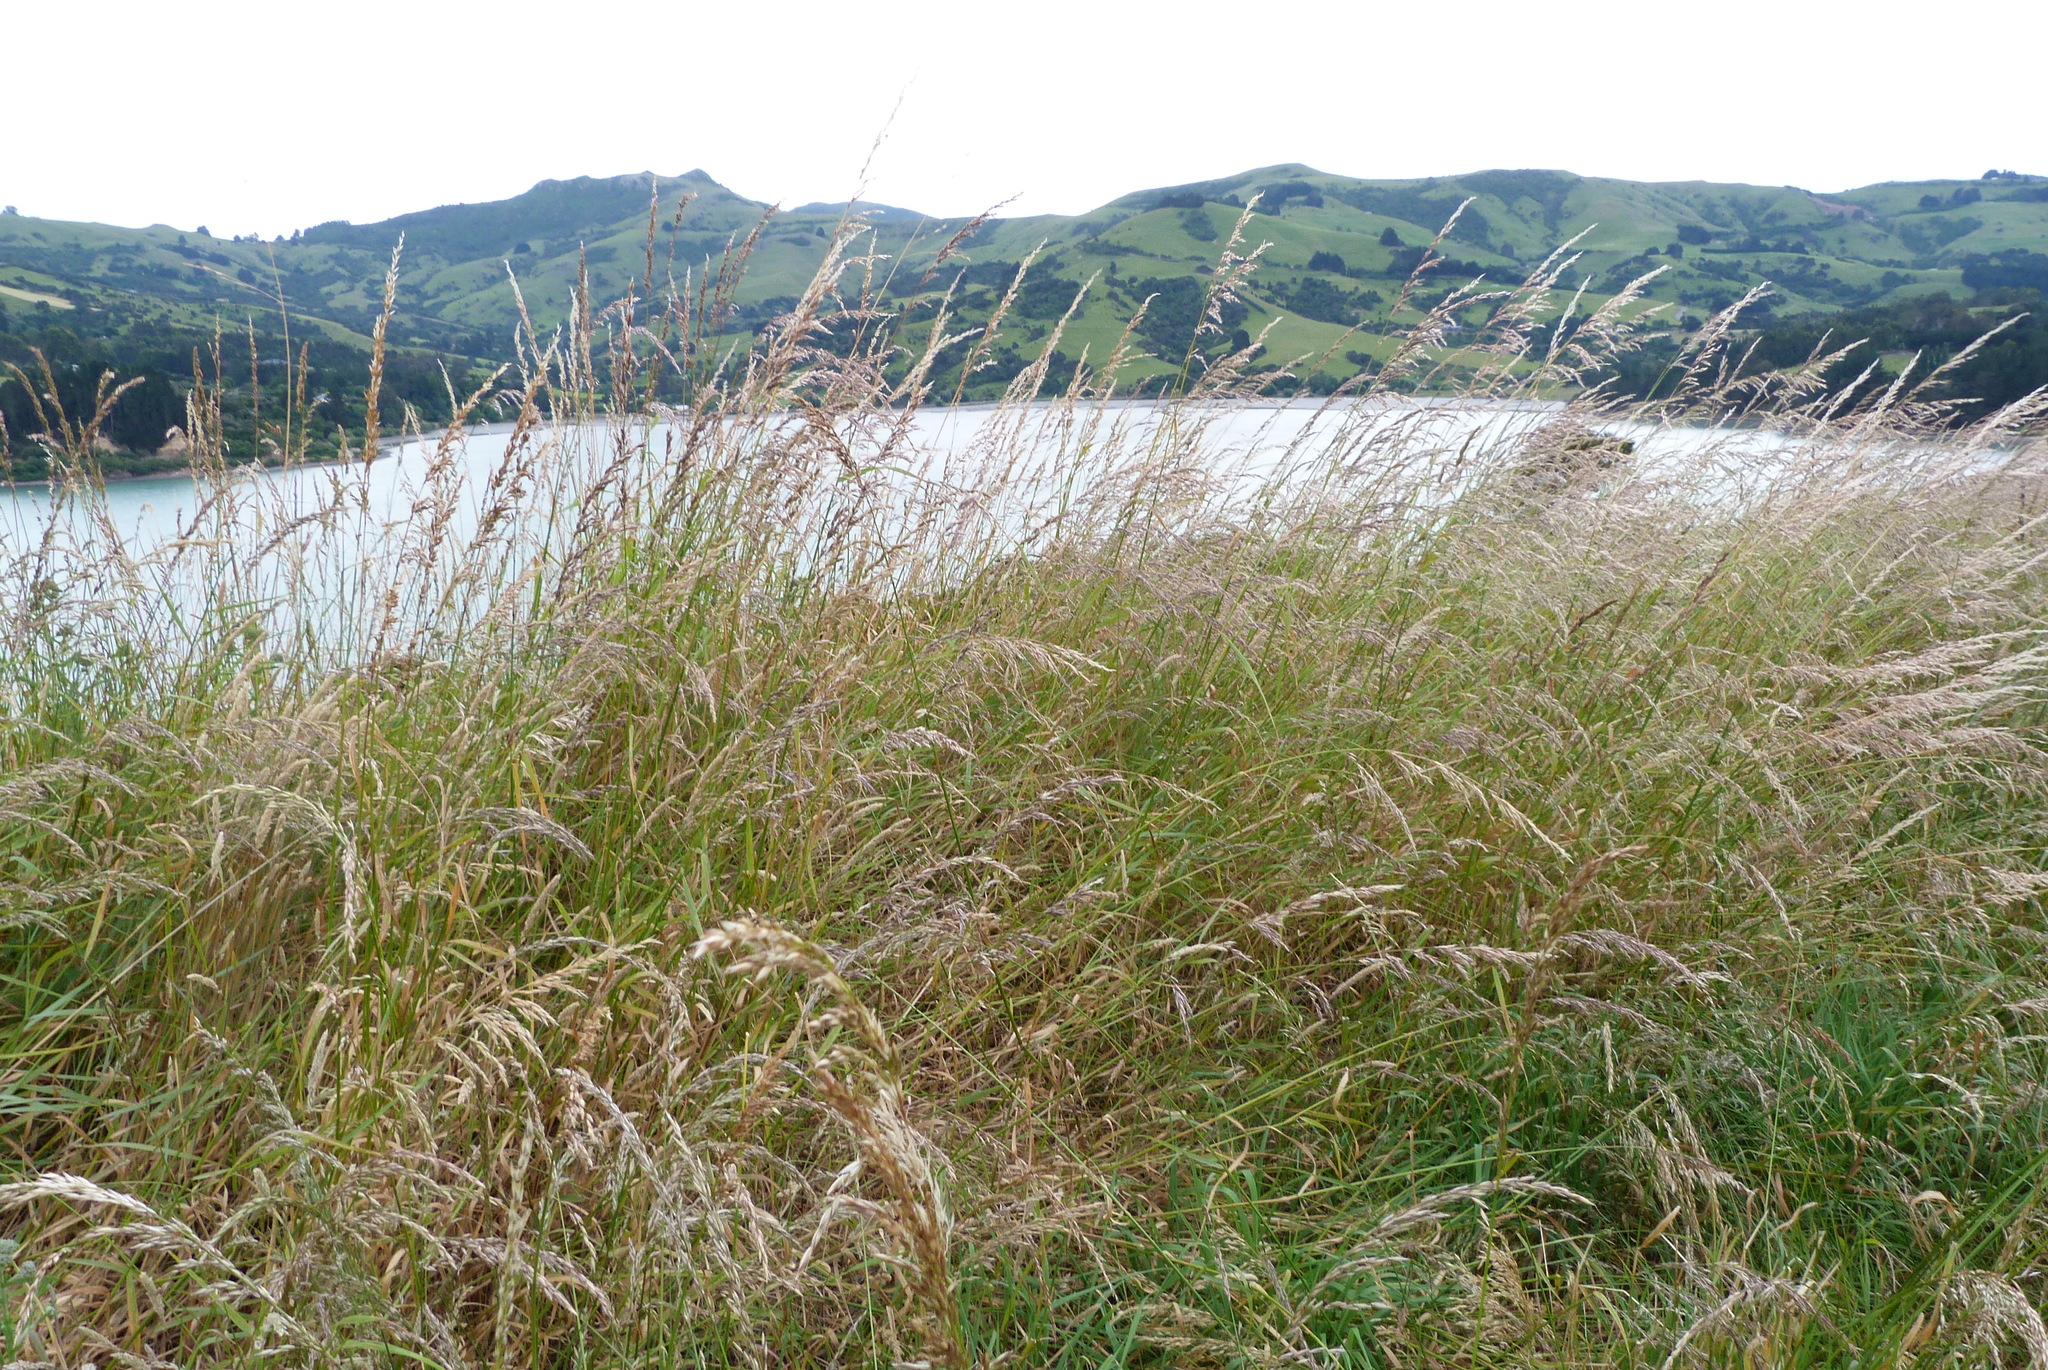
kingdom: Plantae
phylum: Tracheophyta
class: Liliopsida
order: Poales
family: Poaceae
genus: Arrhenatherum
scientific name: Arrhenatherum elatius
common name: Tall oatgrass
